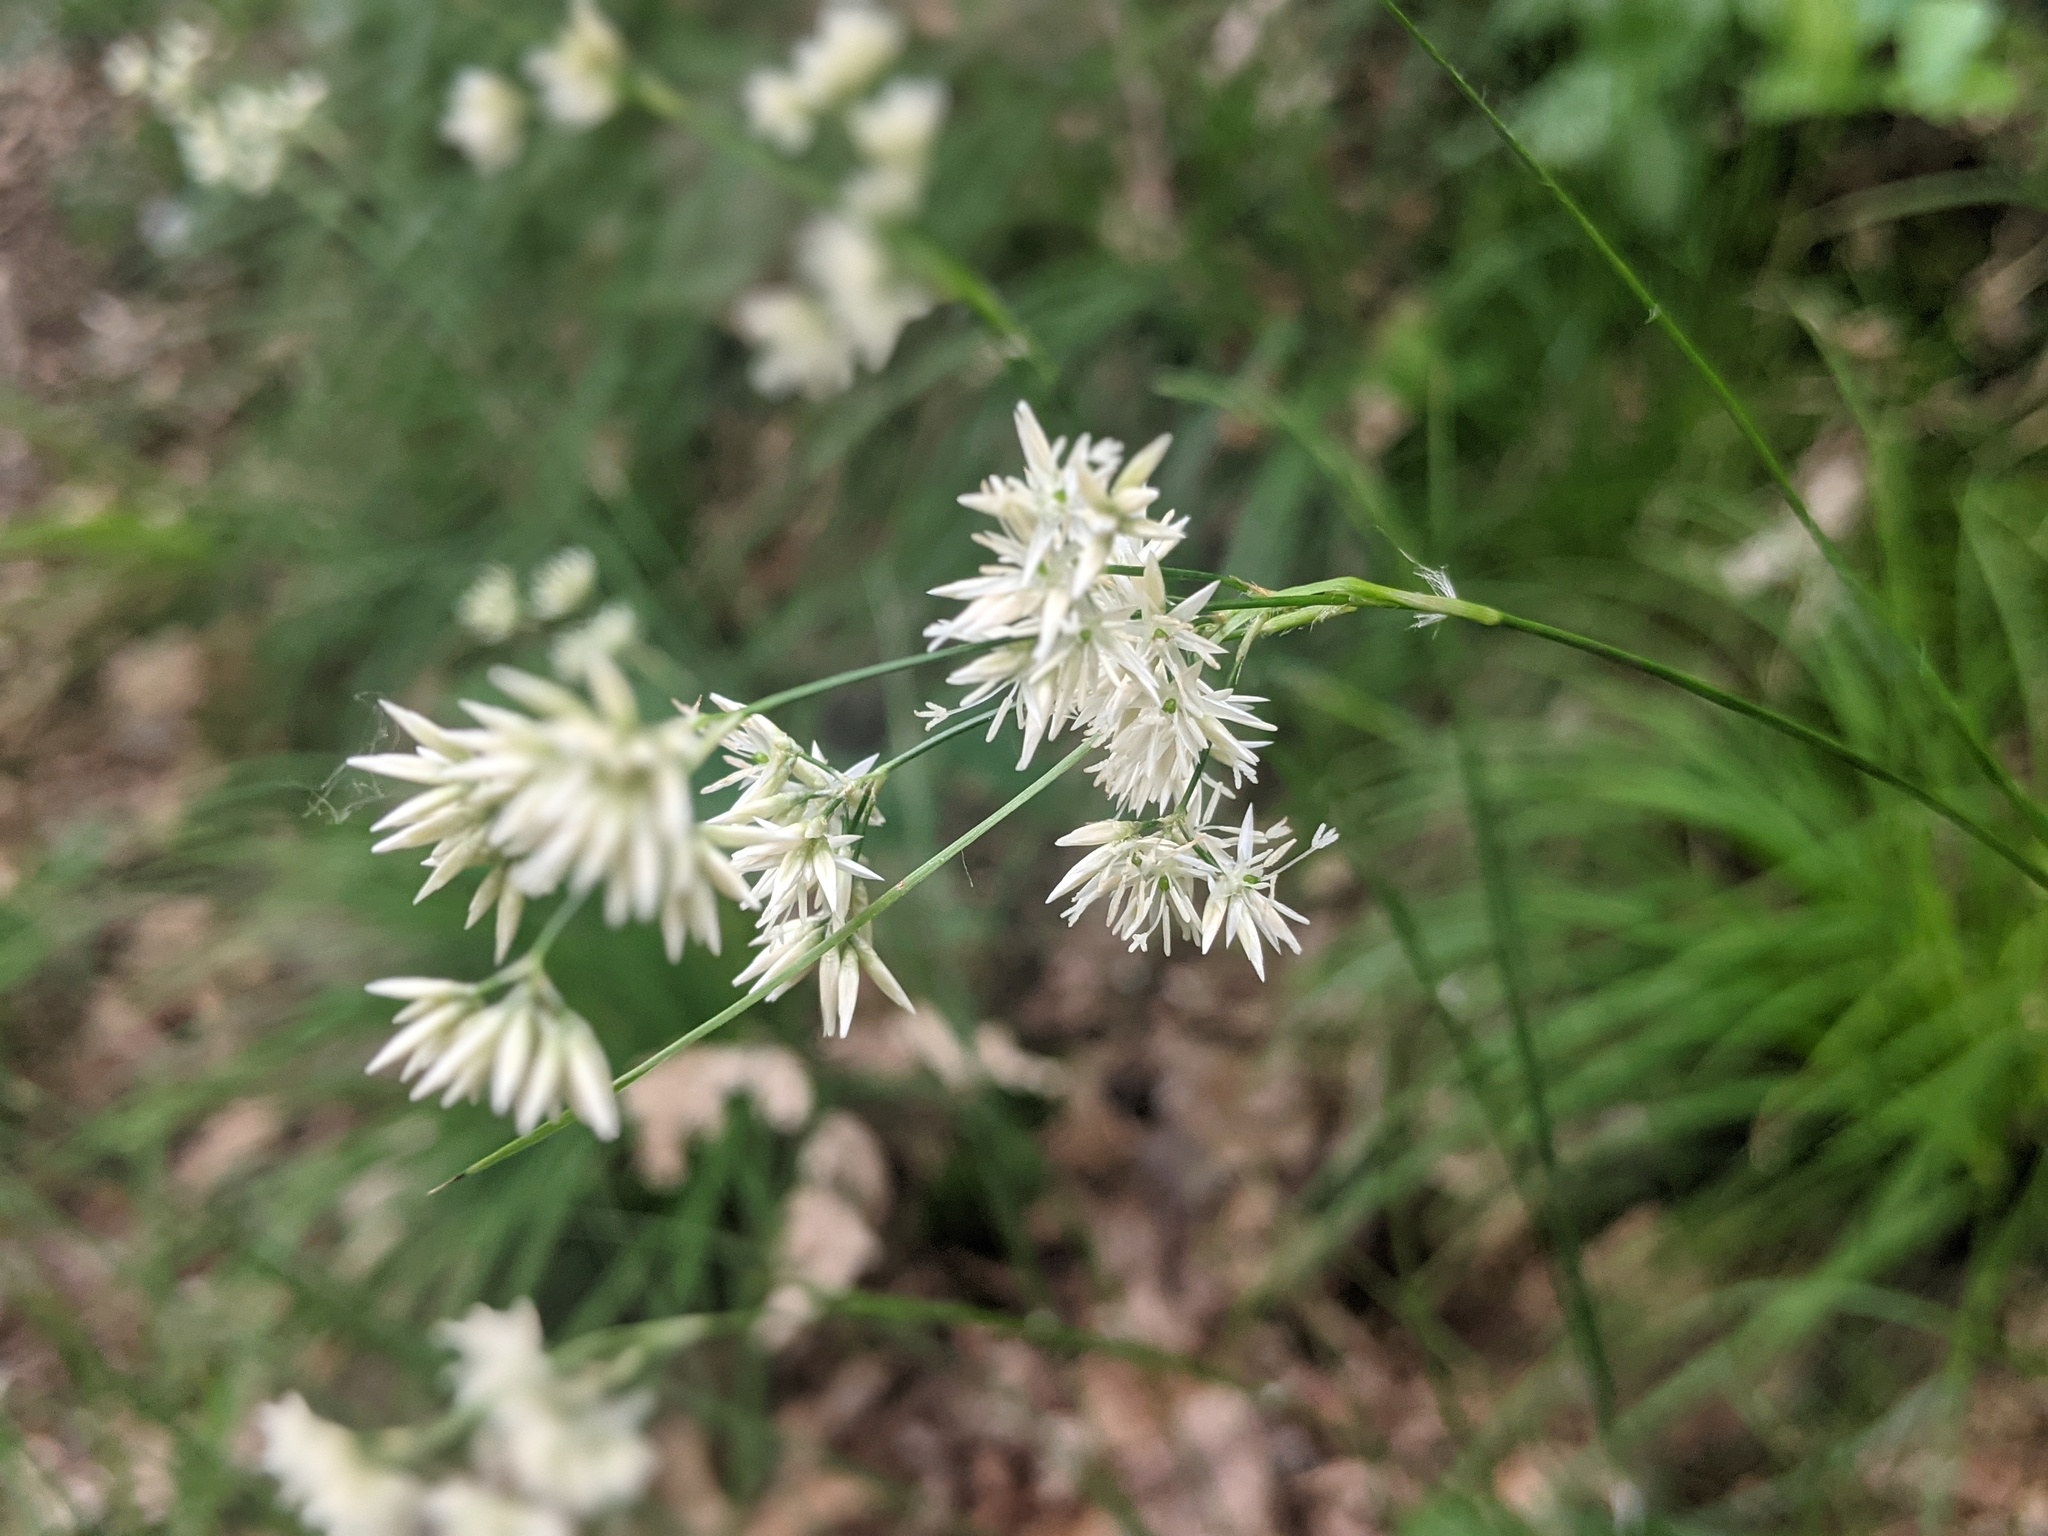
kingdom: Plantae
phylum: Tracheophyta
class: Liliopsida
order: Poales
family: Juncaceae
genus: Luzula
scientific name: Luzula nivea
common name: Snow-white wood-rush
